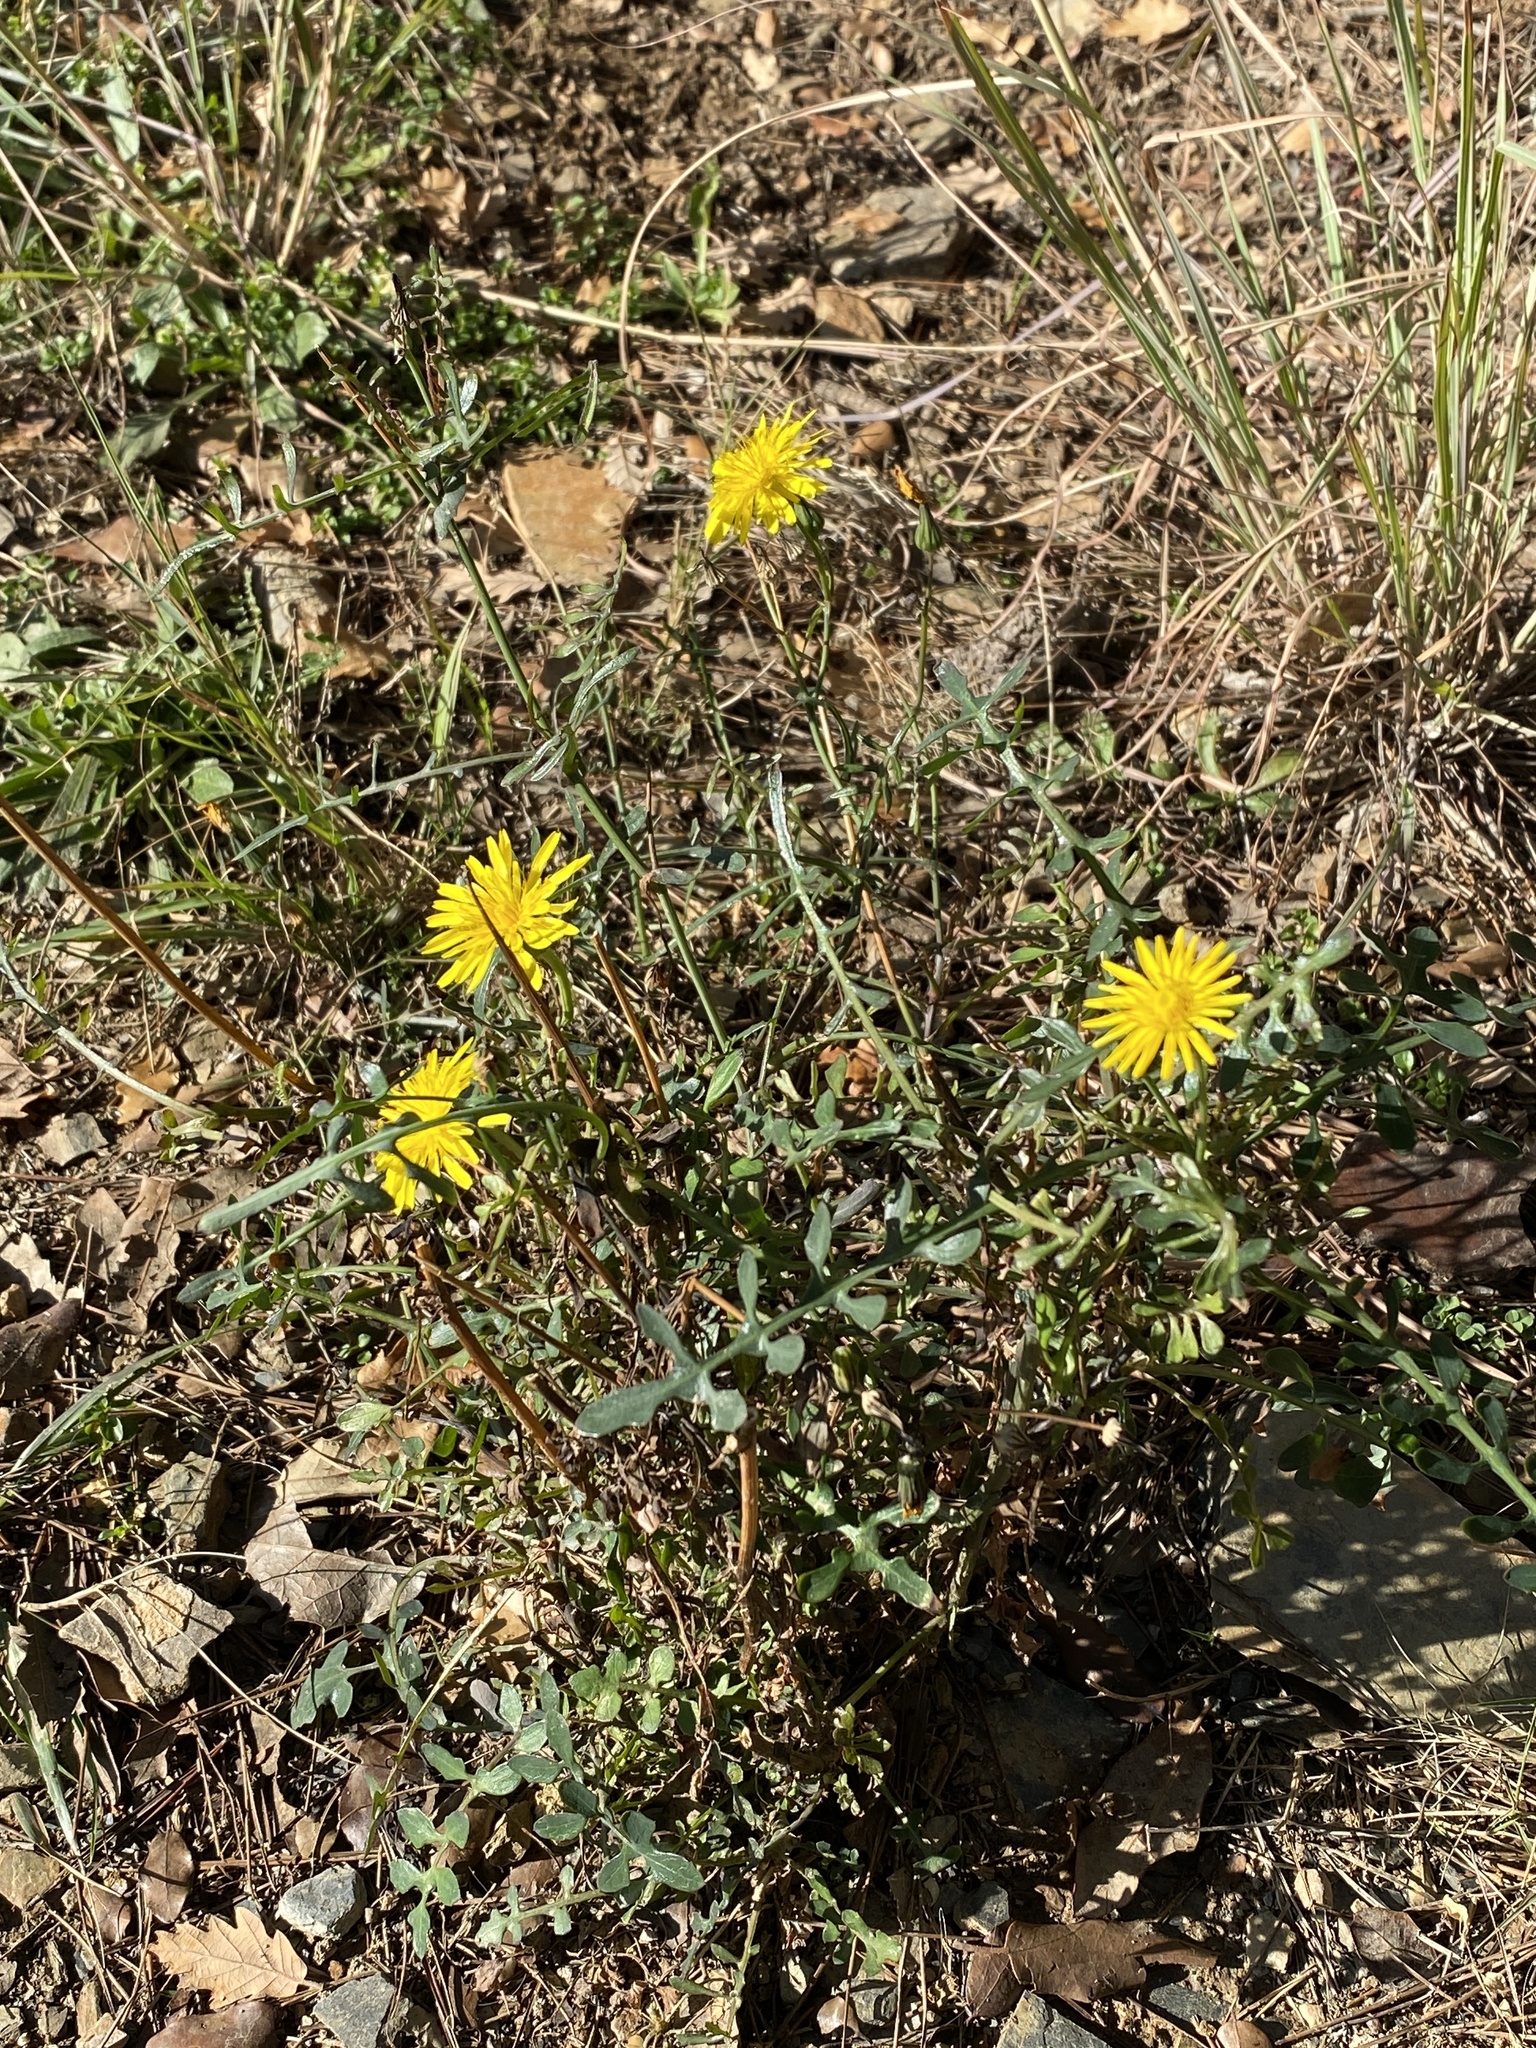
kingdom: Plantae
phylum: Tracheophyta
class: Magnoliopsida
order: Asterales
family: Asteraceae
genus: Sonchus
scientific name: Sonchus tenerrimus
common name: Clammy sowthistle
